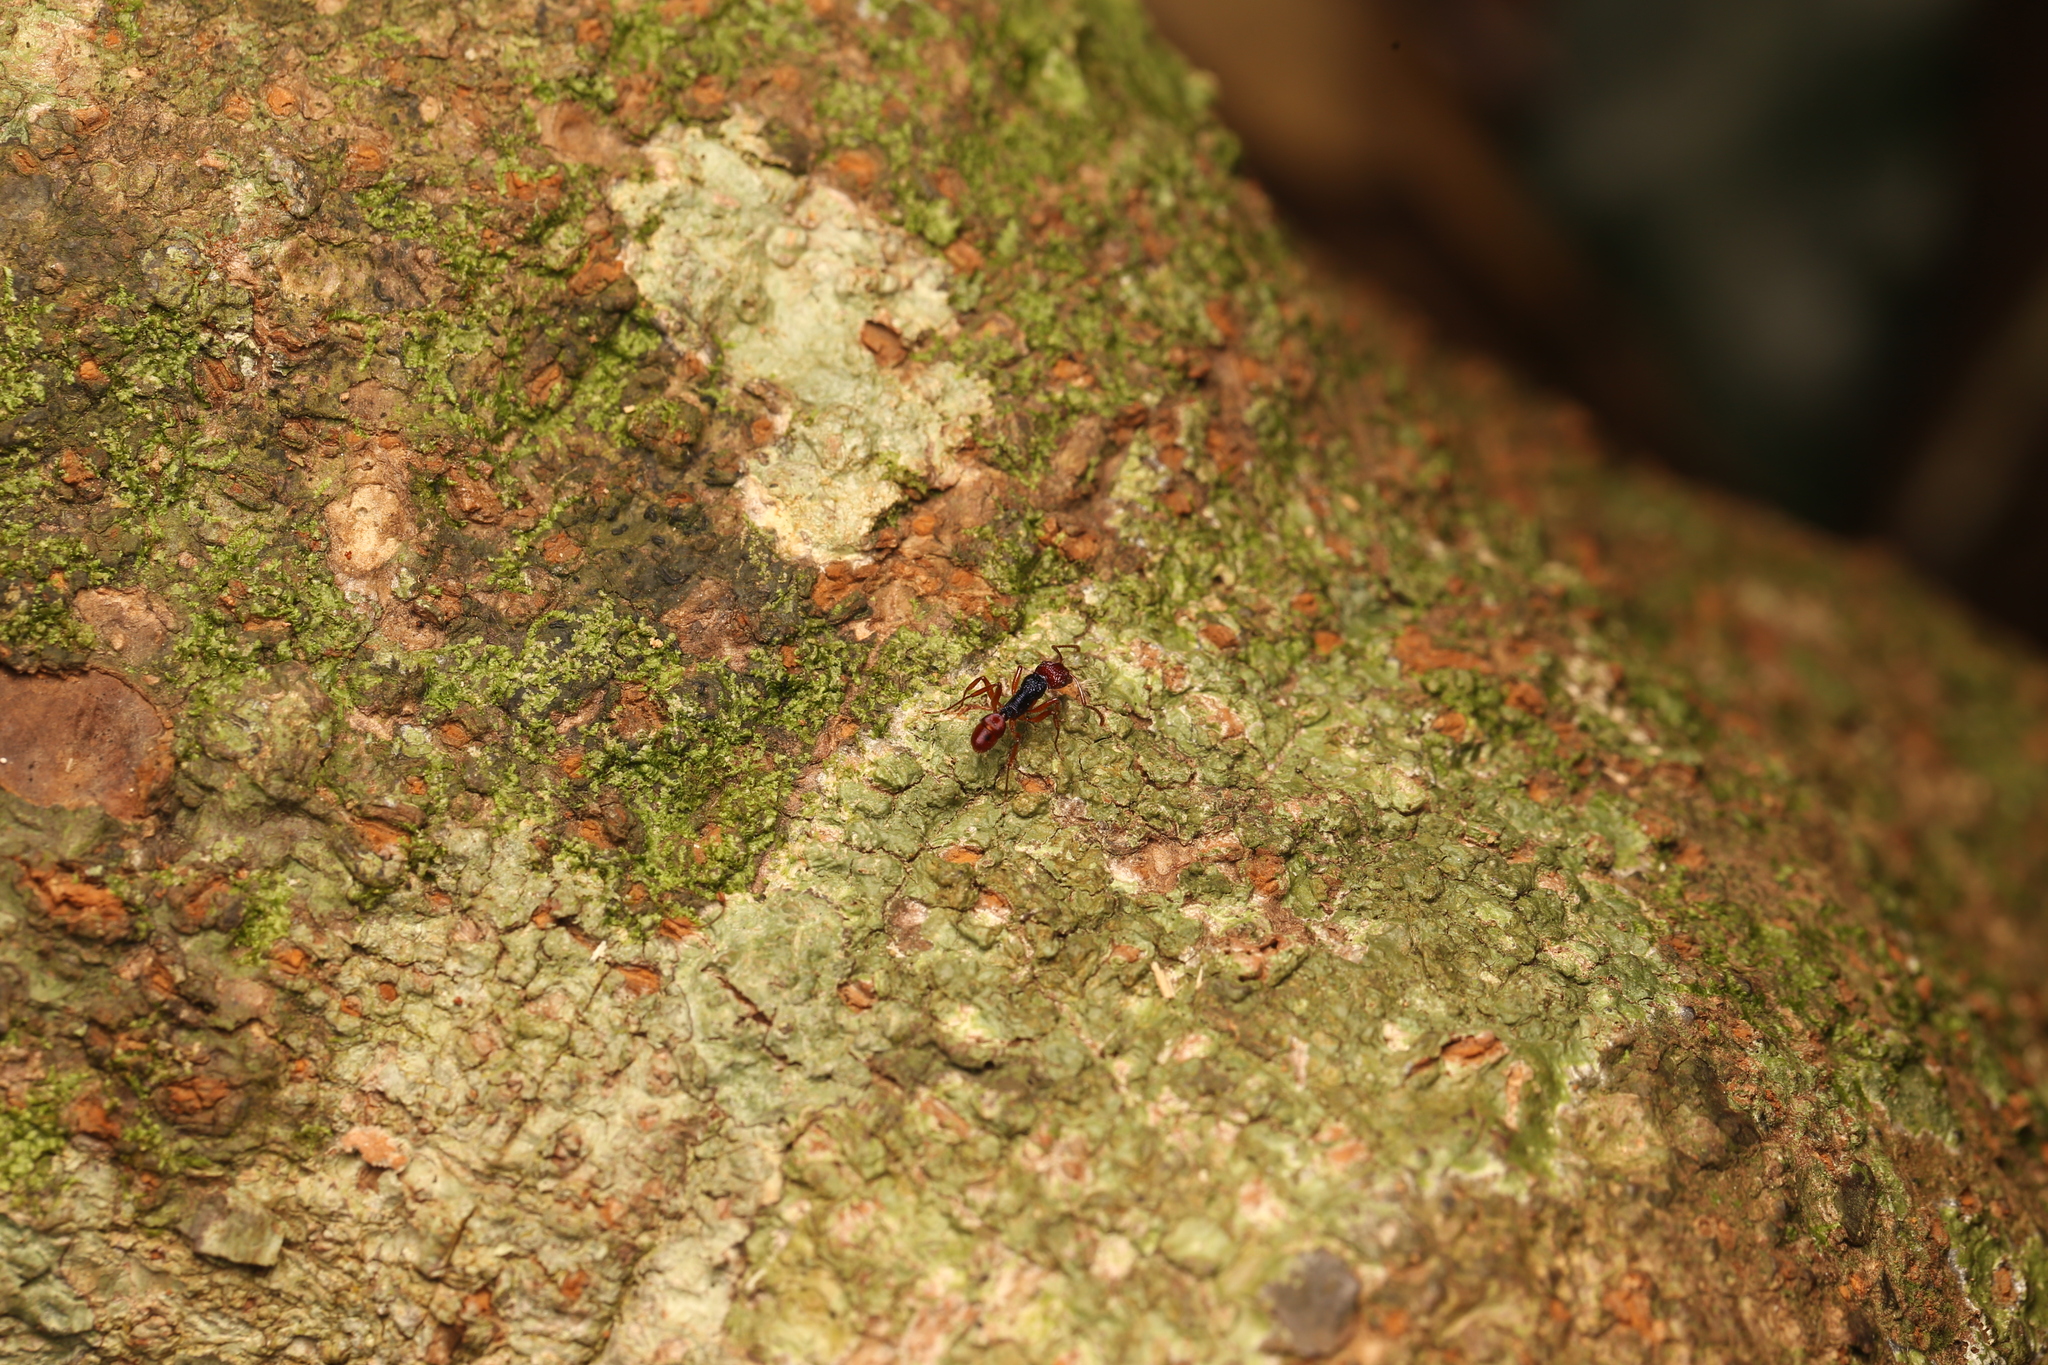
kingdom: Animalia
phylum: Arthropoda
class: Insecta
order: Hymenoptera
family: Formicidae
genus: Rhytidoponera
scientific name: Rhytidoponera croesus
